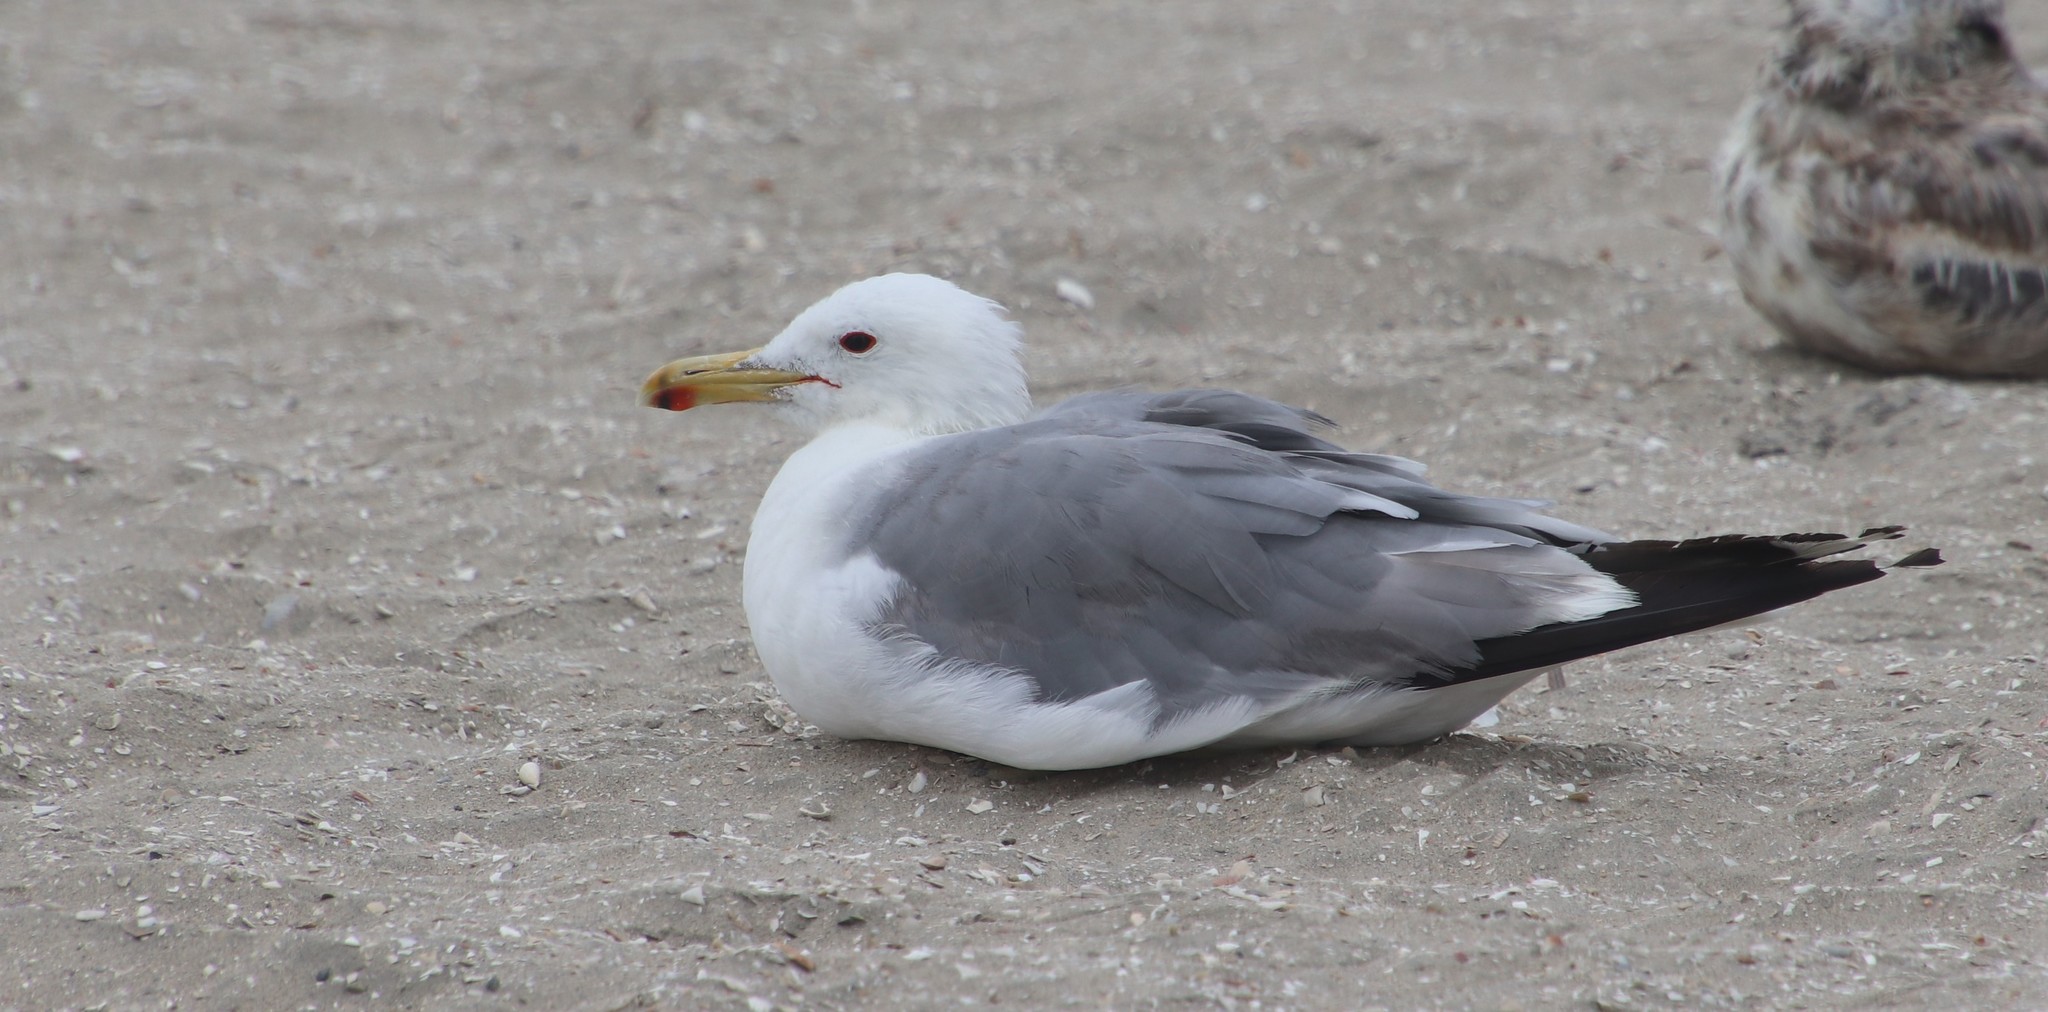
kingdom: Animalia
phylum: Chordata
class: Aves
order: Charadriiformes
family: Laridae
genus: Larus
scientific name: Larus californicus
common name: California gull
